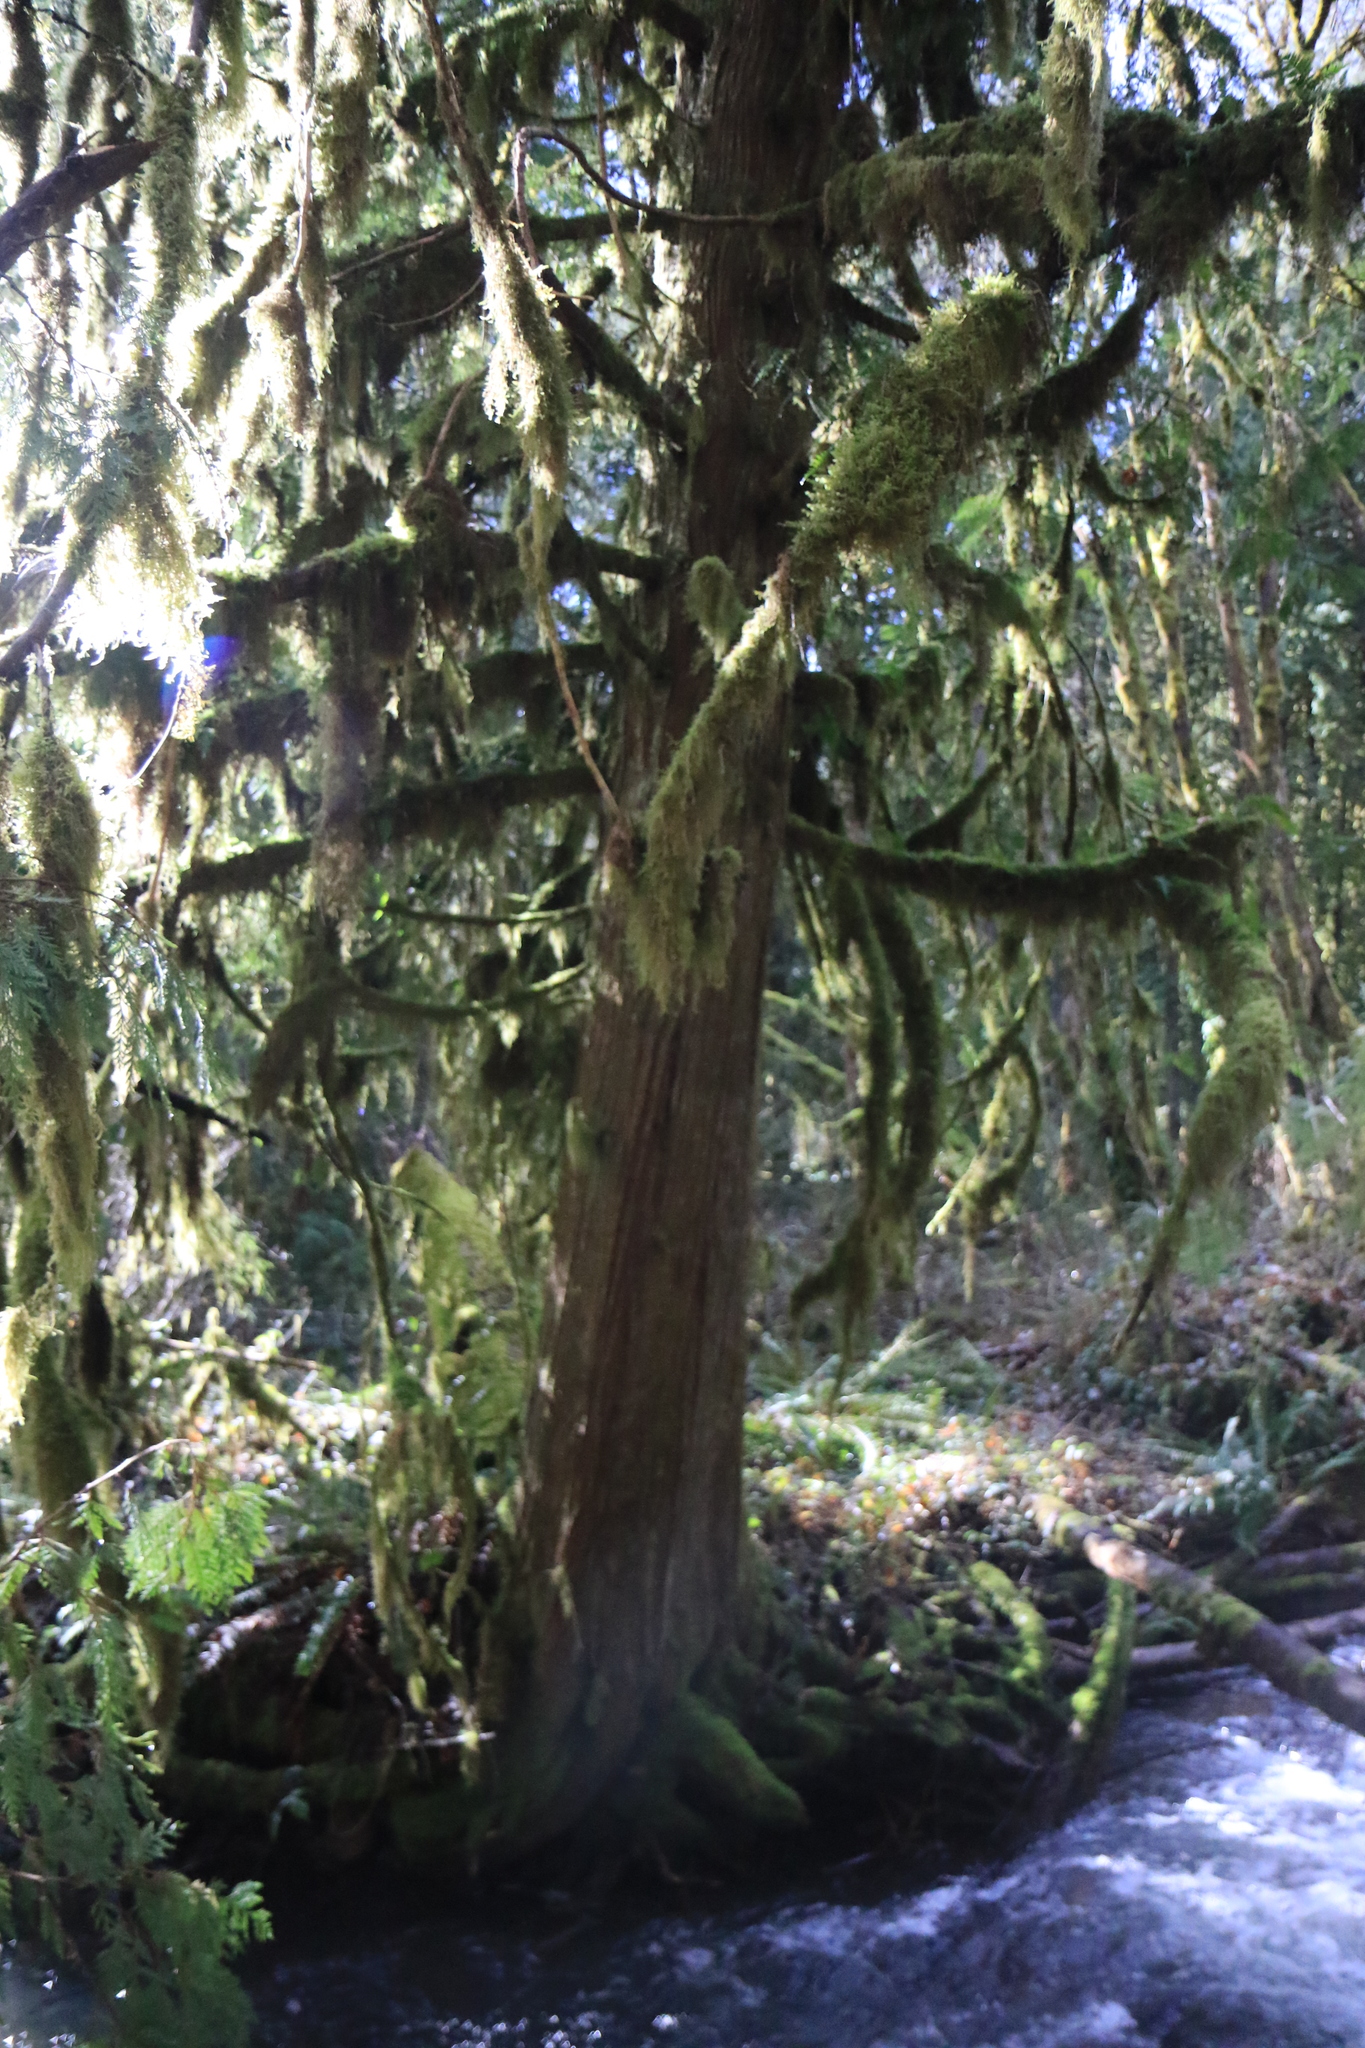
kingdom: Plantae
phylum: Tracheophyta
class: Pinopsida
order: Pinales
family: Cupressaceae
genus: Thuja
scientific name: Thuja plicata
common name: Western red-cedar
